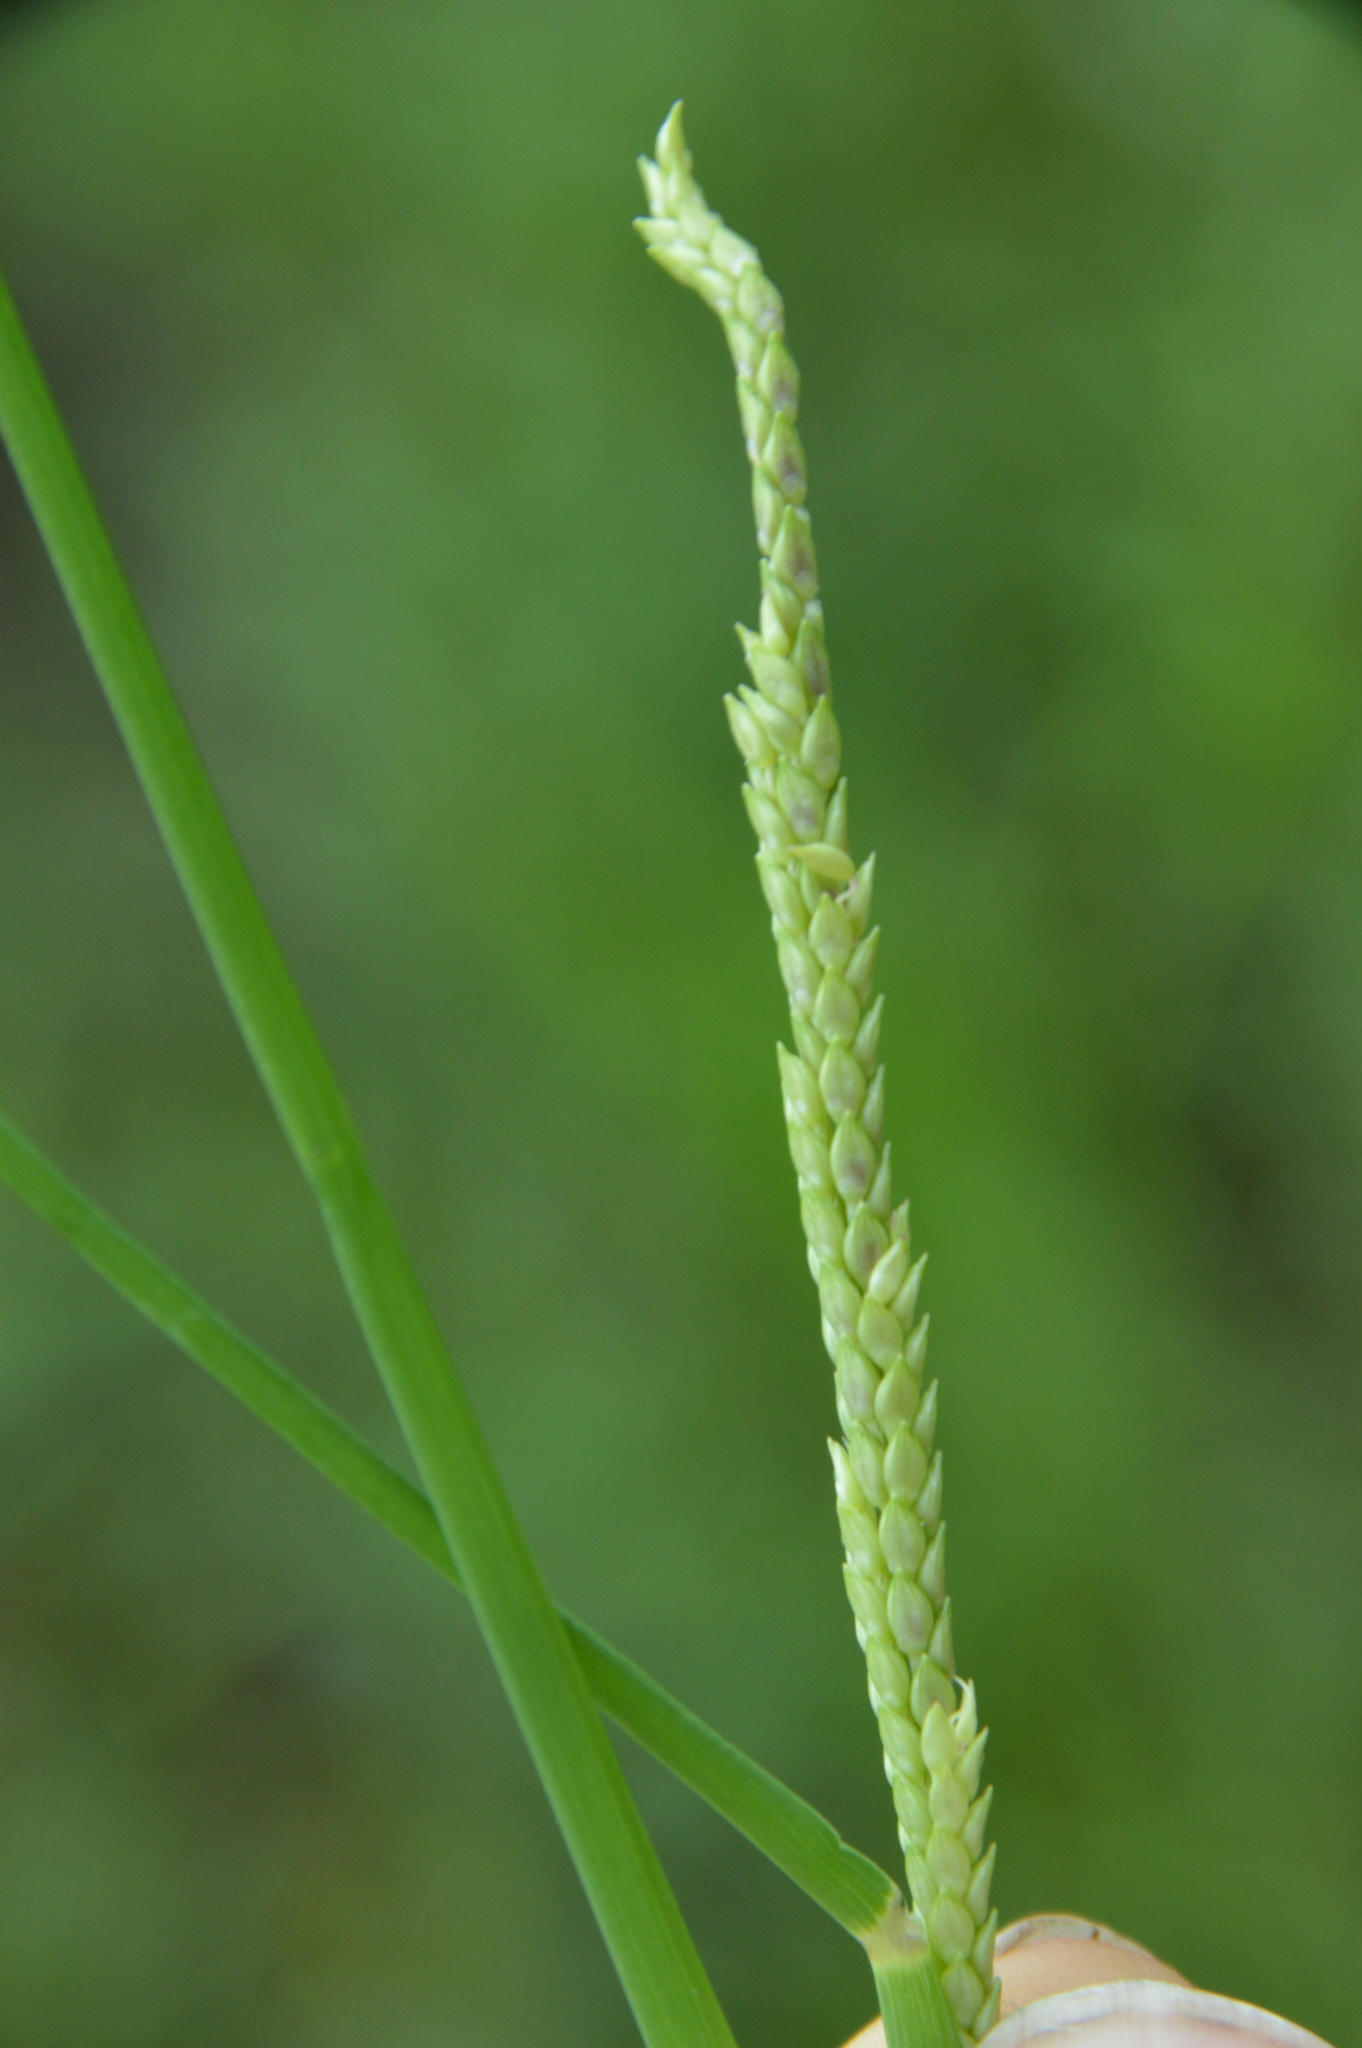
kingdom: Plantae
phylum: Tracheophyta
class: Liliopsida
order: Poales
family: Poaceae
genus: Setaria
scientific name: Setaria geminata
